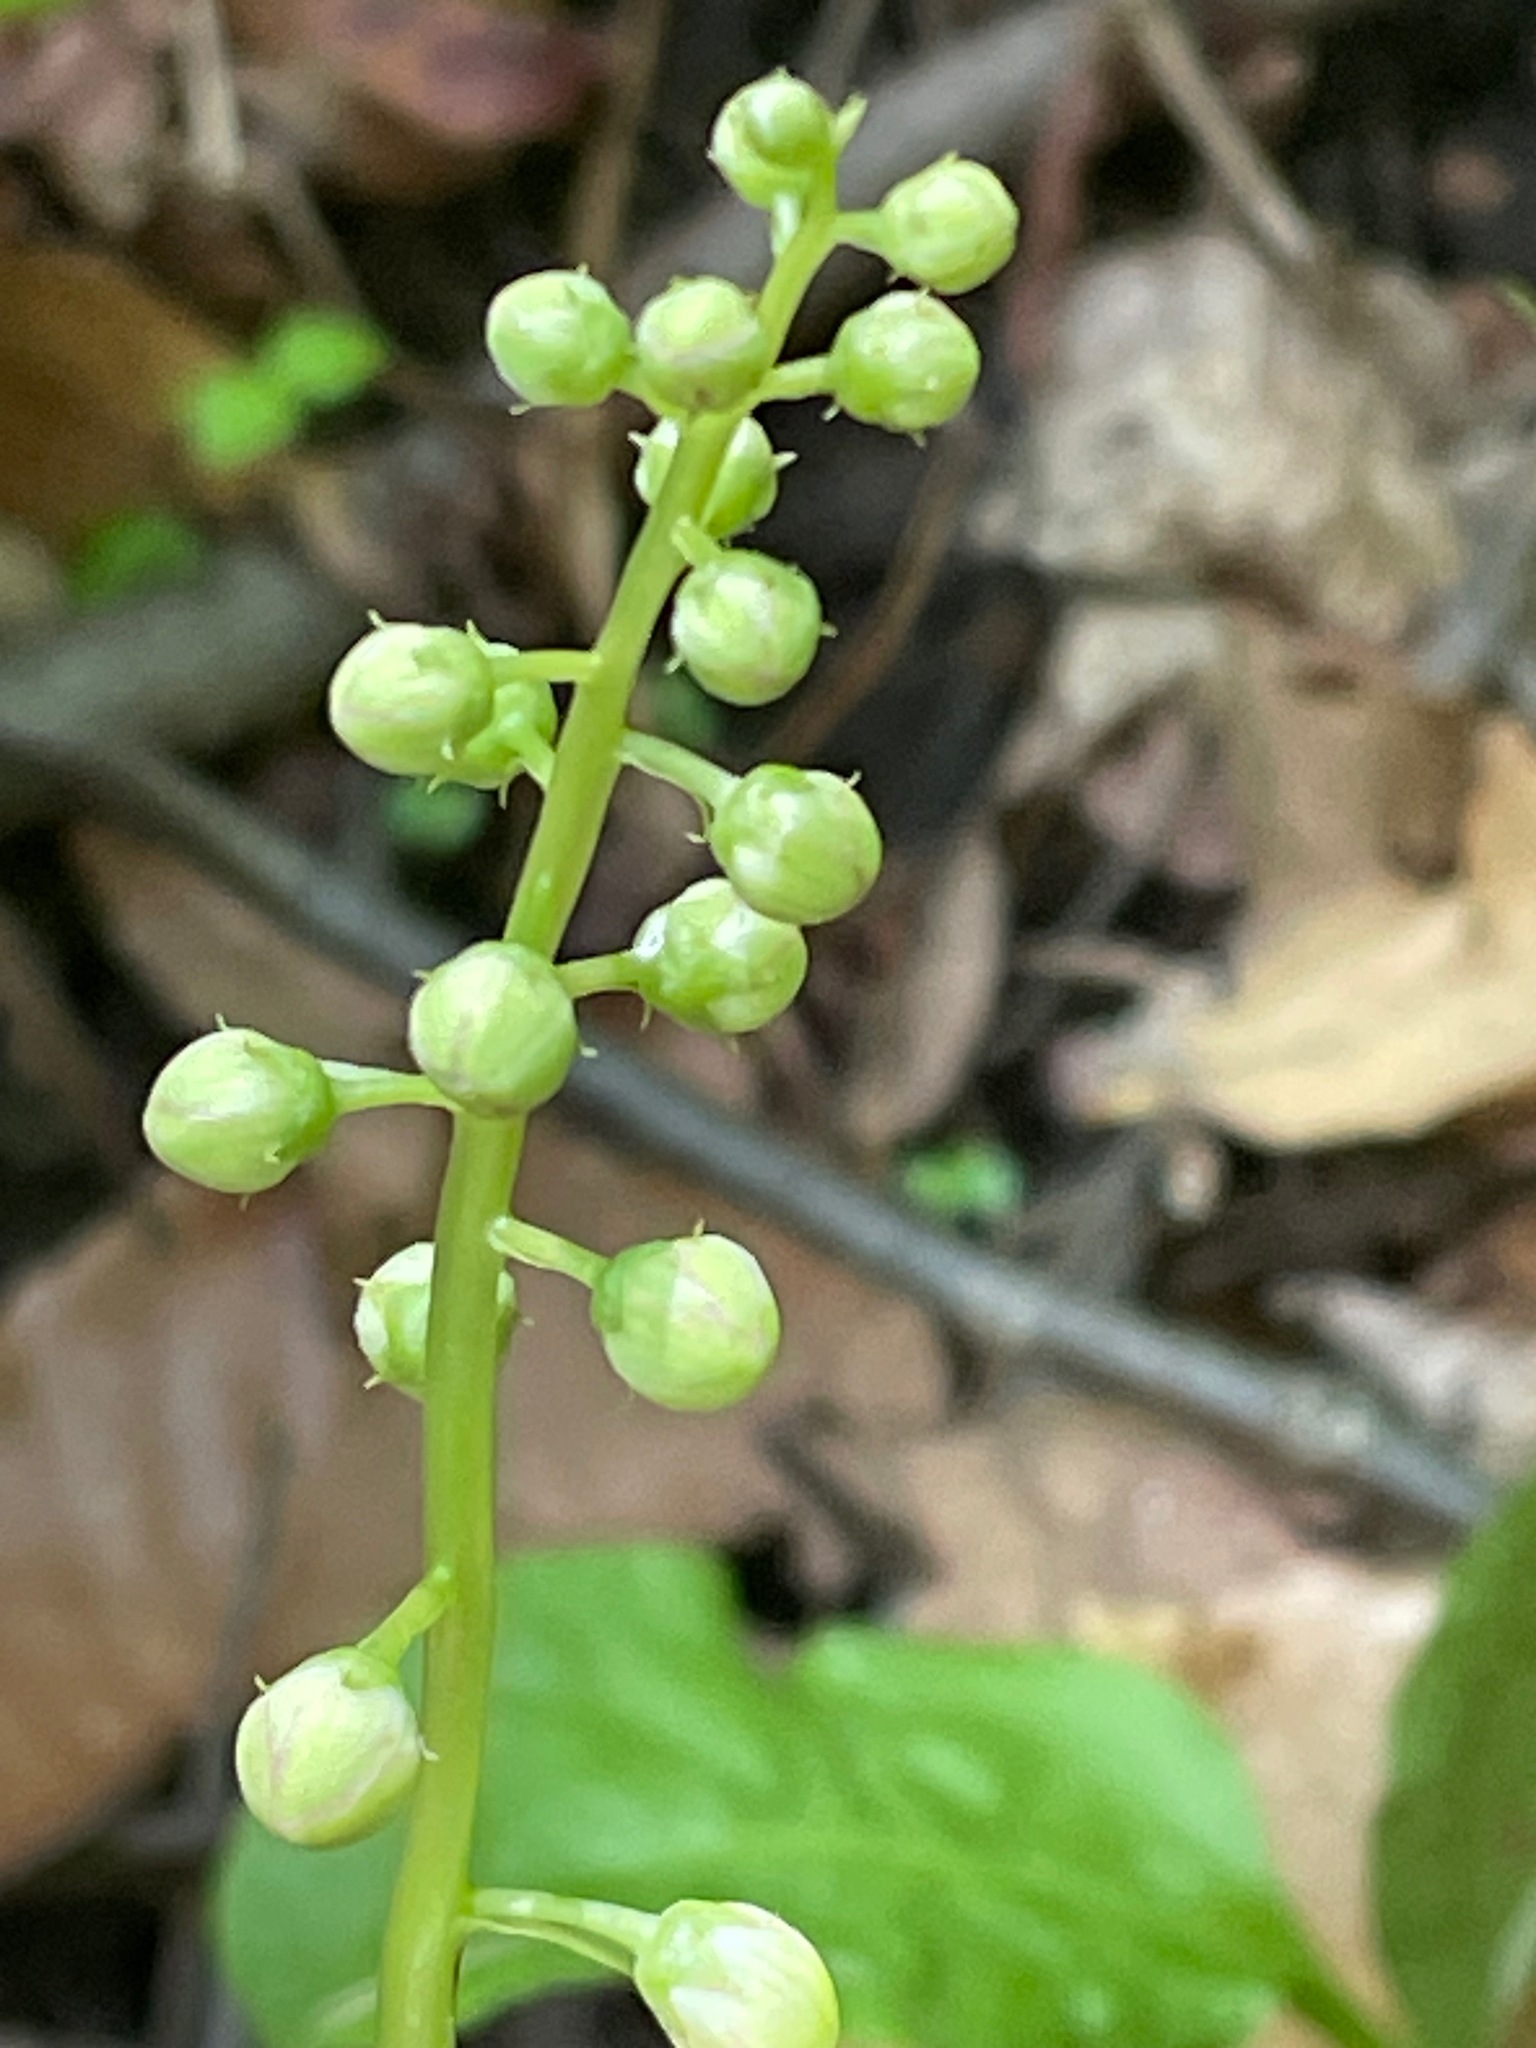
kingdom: Plantae
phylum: Tracheophyta
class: Magnoliopsida
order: Ericales
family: Ericaceae
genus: Pyrola
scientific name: Pyrola elliptica
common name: Shinleaf
